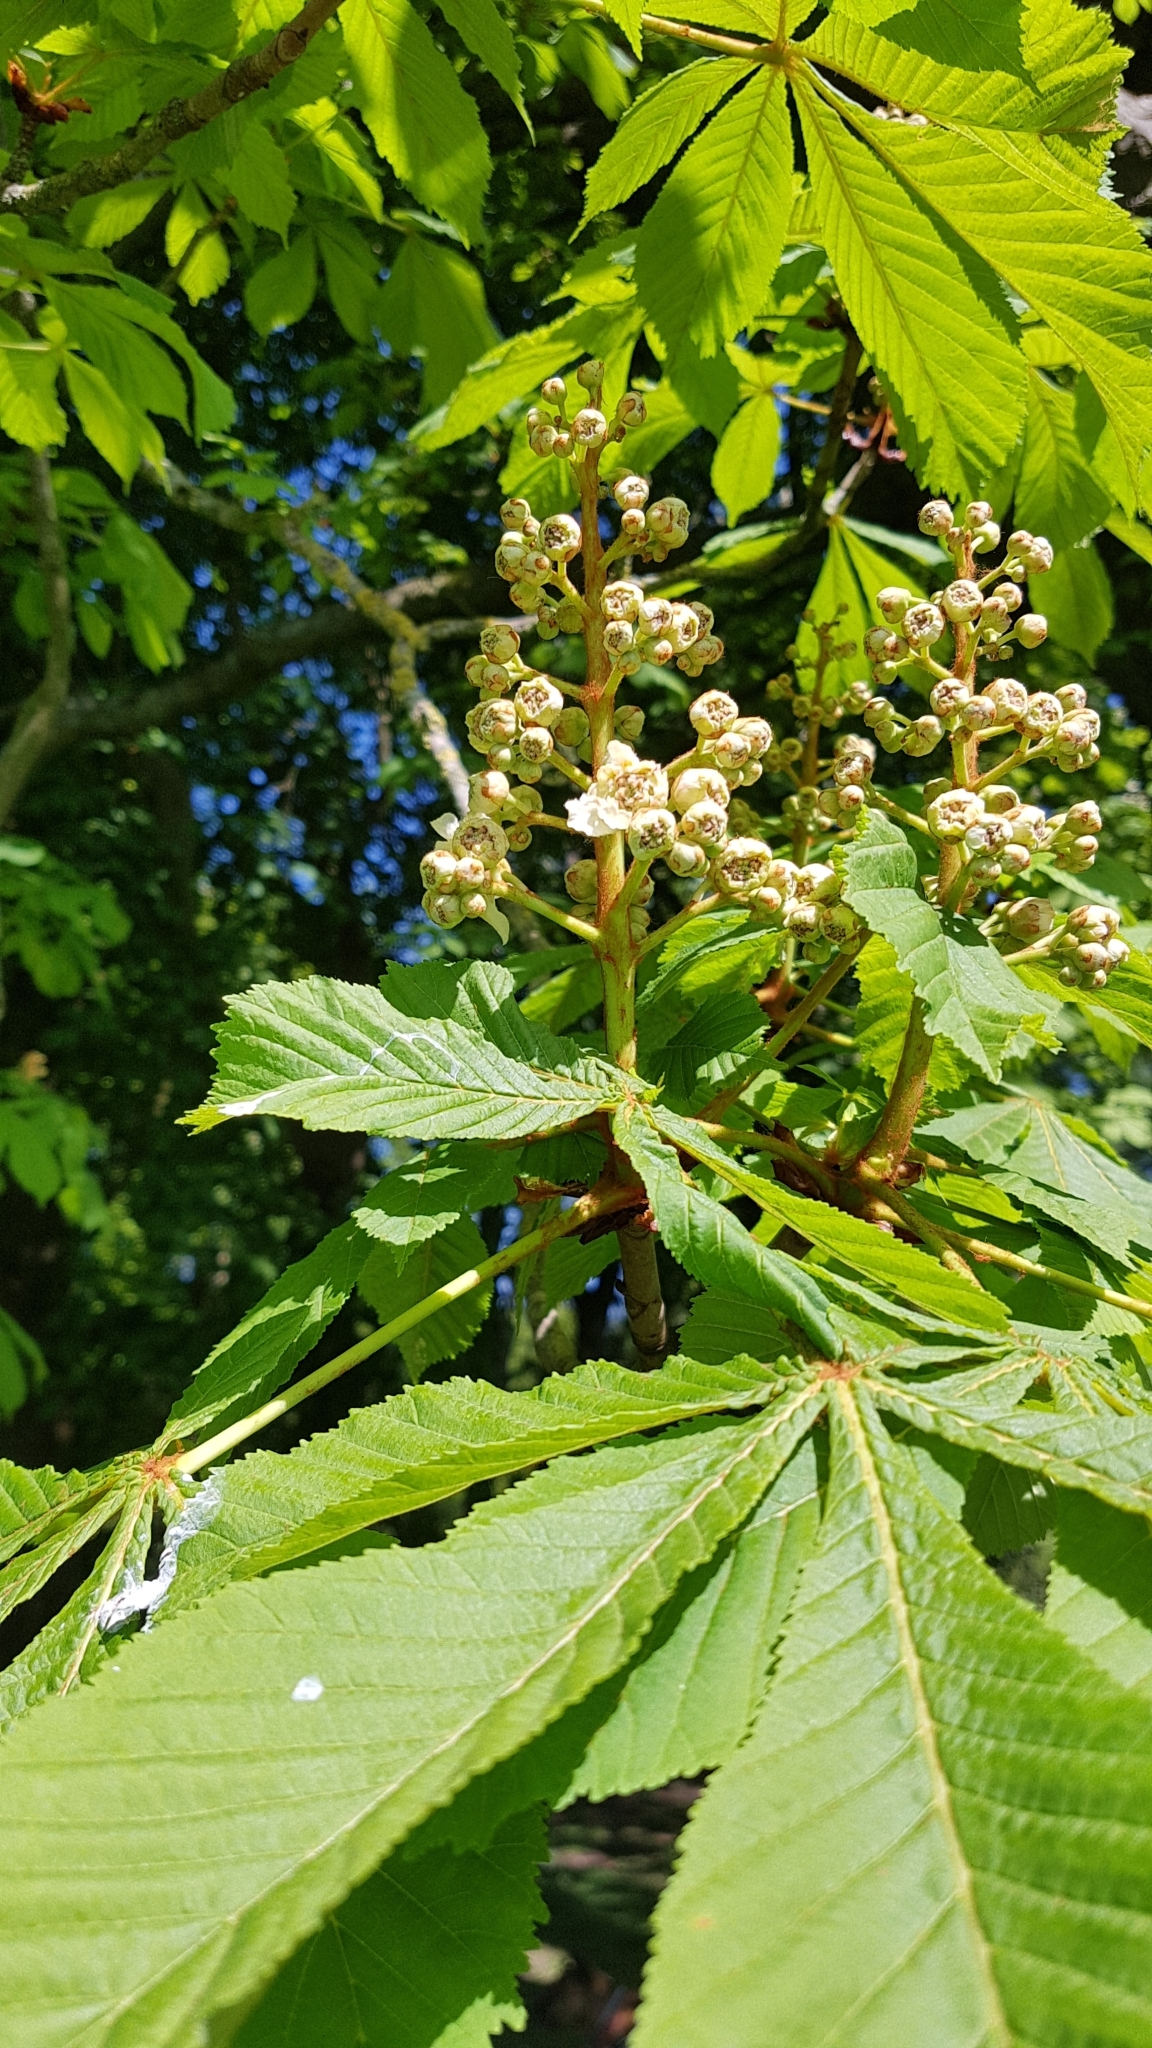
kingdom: Plantae
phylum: Tracheophyta
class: Magnoliopsida
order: Sapindales
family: Sapindaceae
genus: Aesculus
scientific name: Aesculus hippocastanum
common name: Horse-chestnut
